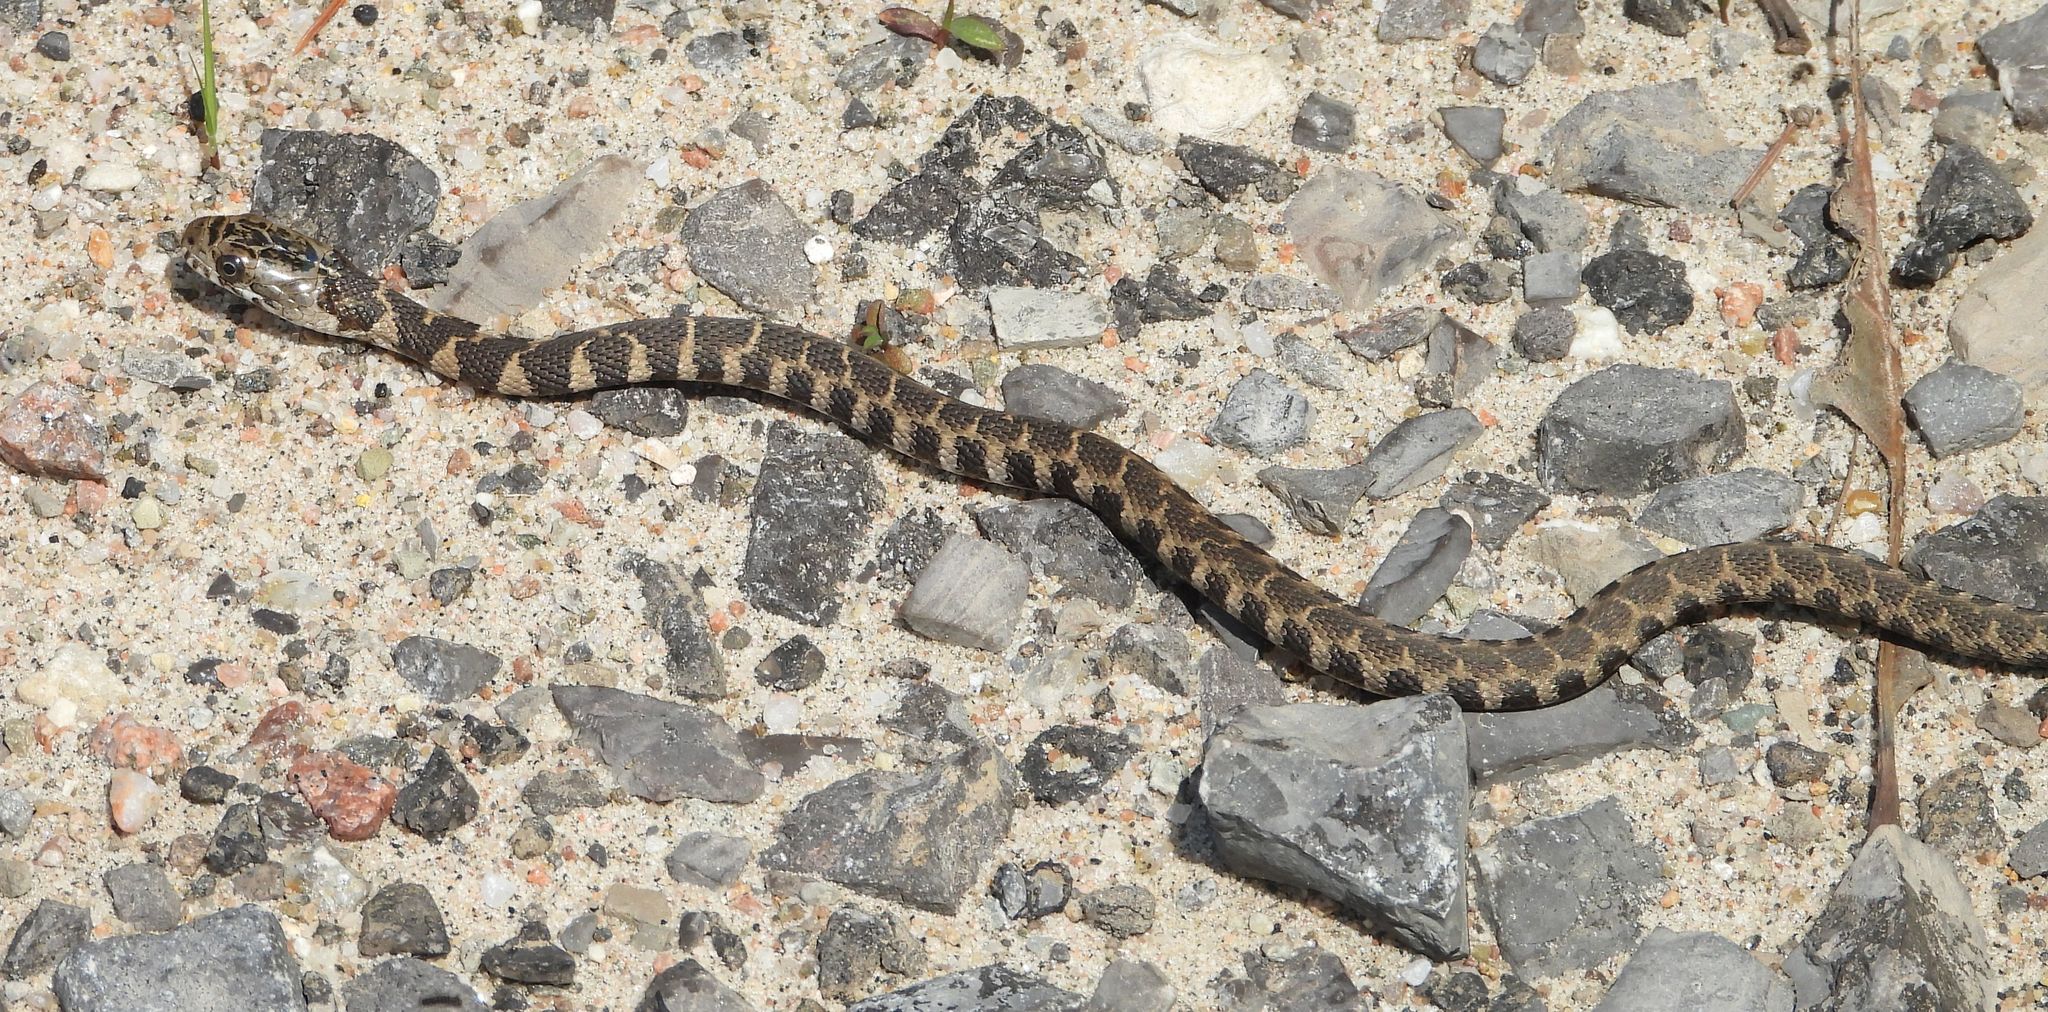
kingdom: Animalia
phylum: Chordata
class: Squamata
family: Colubridae
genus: Nerodia
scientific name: Nerodia sipedon
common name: Northern water snake
